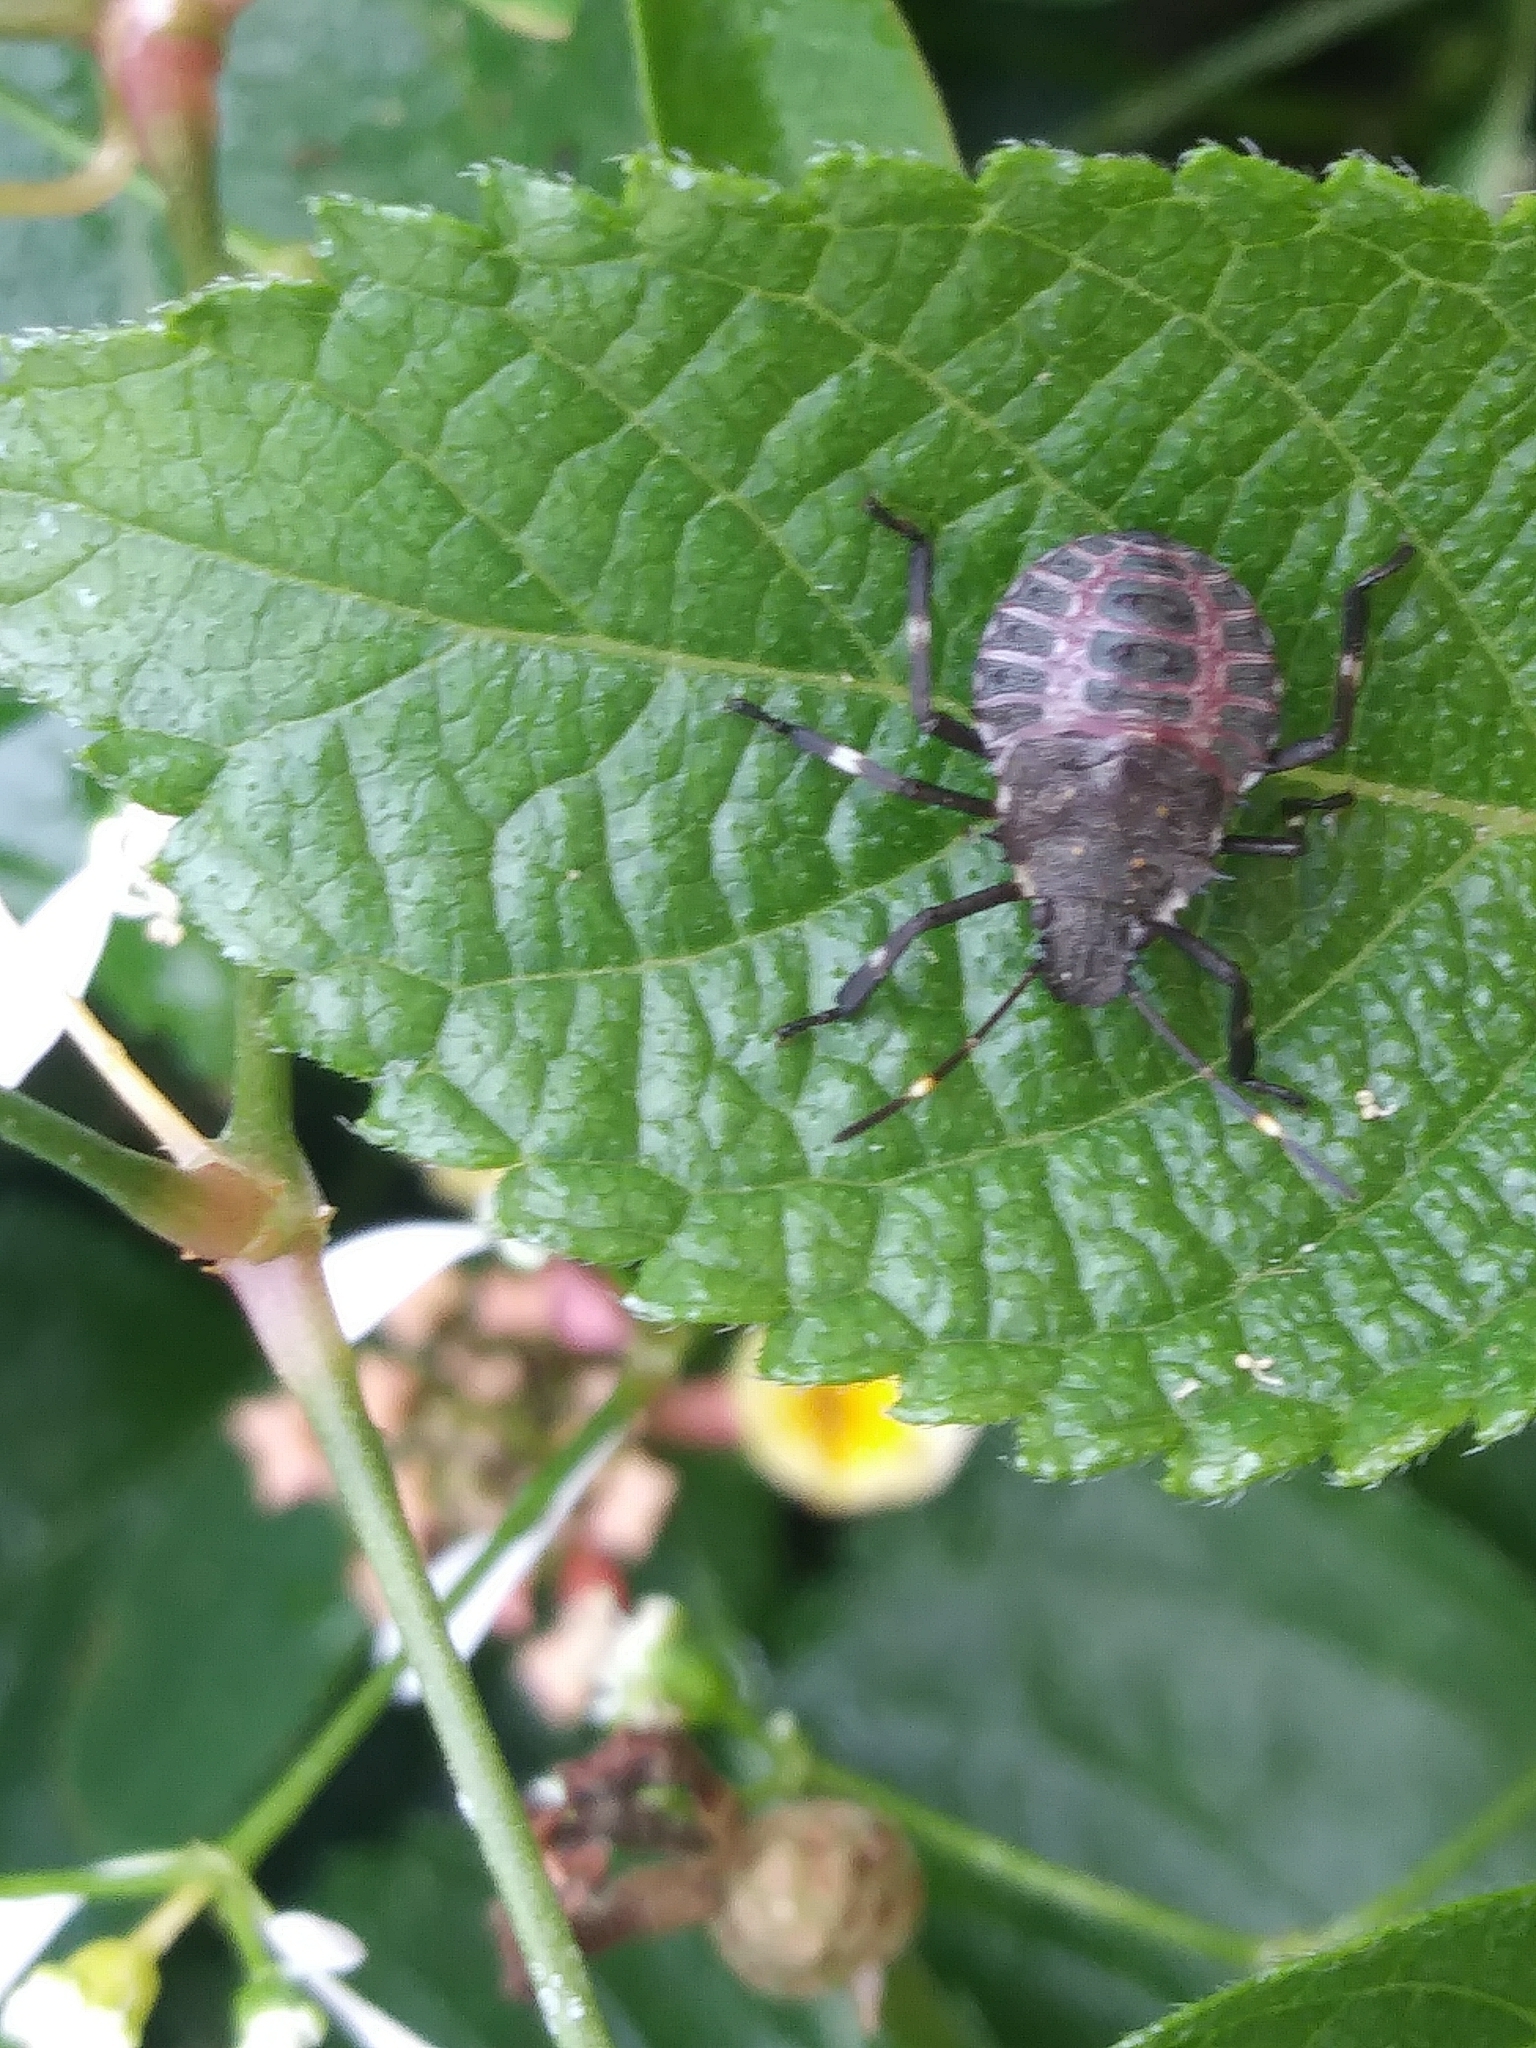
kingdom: Animalia
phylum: Arthropoda
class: Insecta
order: Hemiptera
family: Pentatomidae
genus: Halyomorpha
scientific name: Halyomorpha halys
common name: Brown marmorated stink bug
